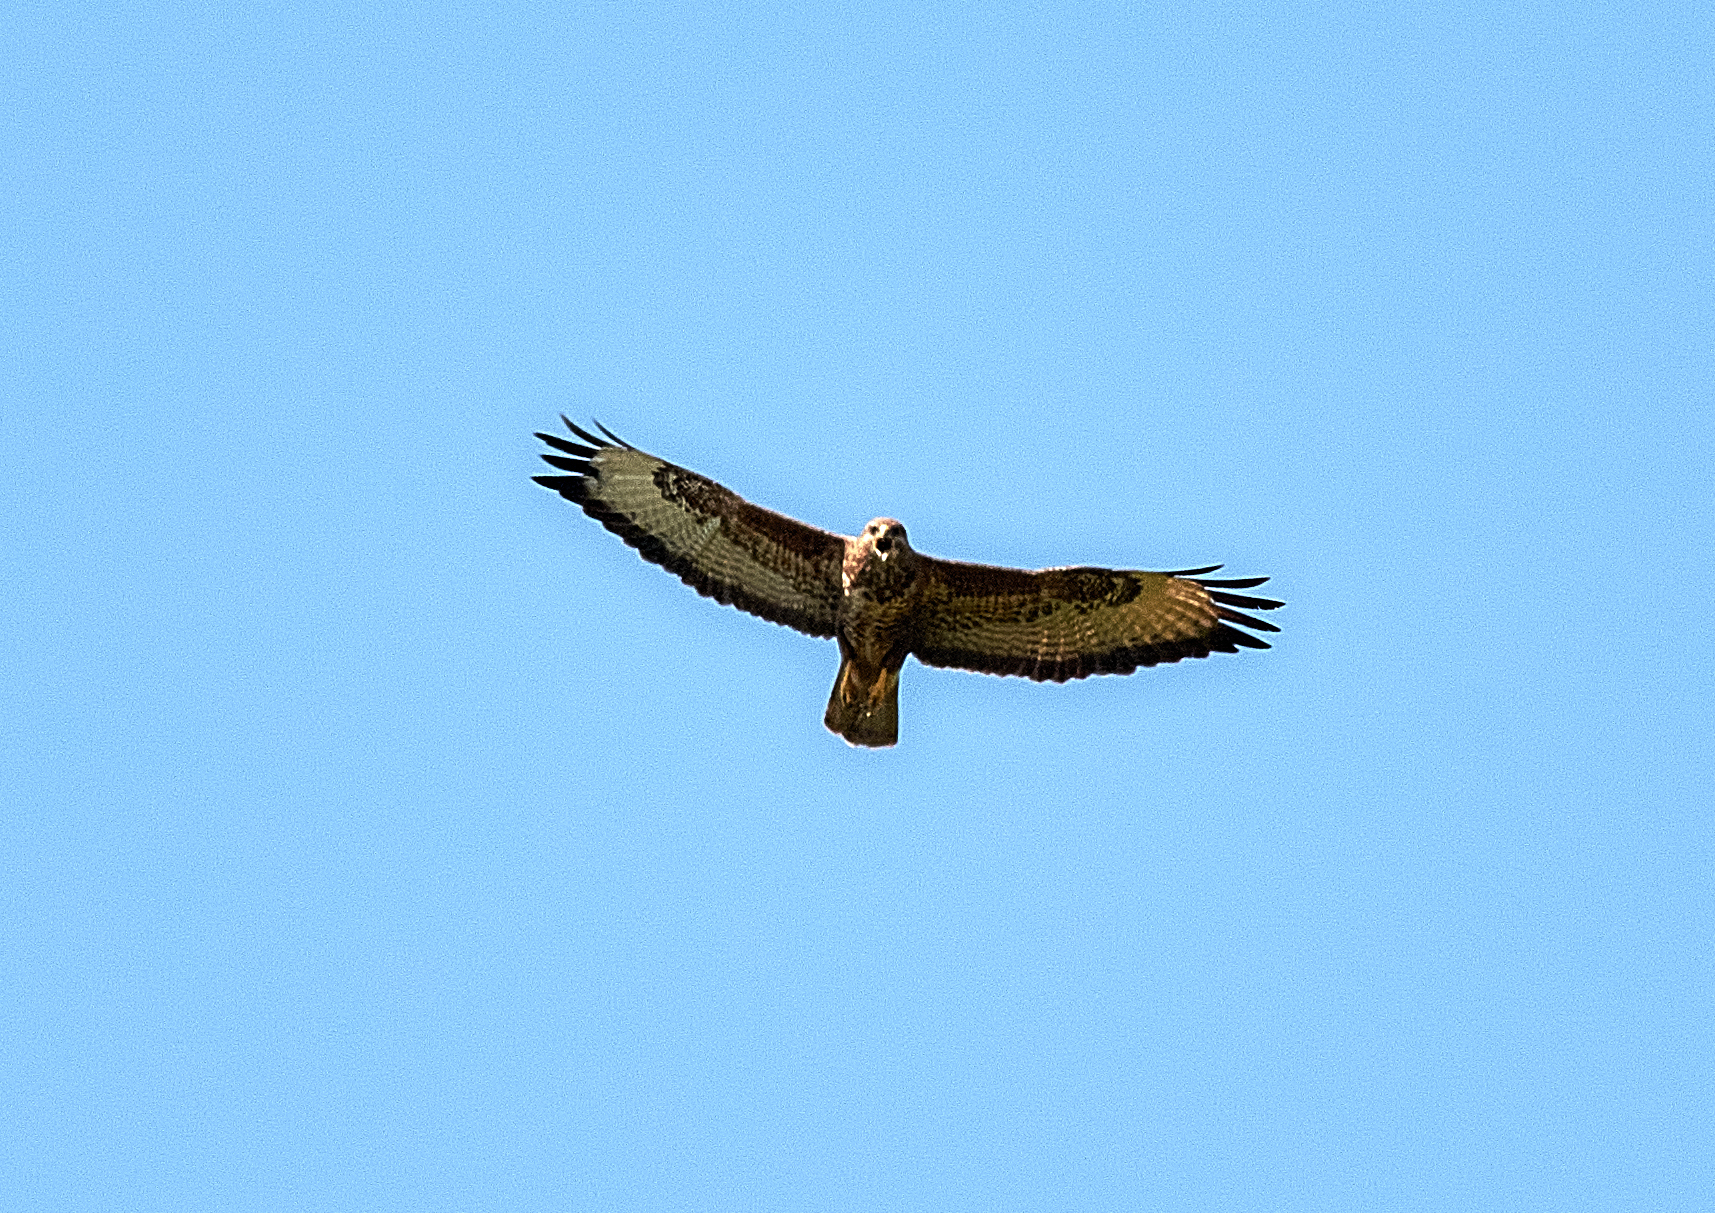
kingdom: Animalia
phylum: Chordata
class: Aves
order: Accipitriformes
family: Accipitridae
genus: Buteo
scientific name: Buteo buteo
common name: Common buzzard
